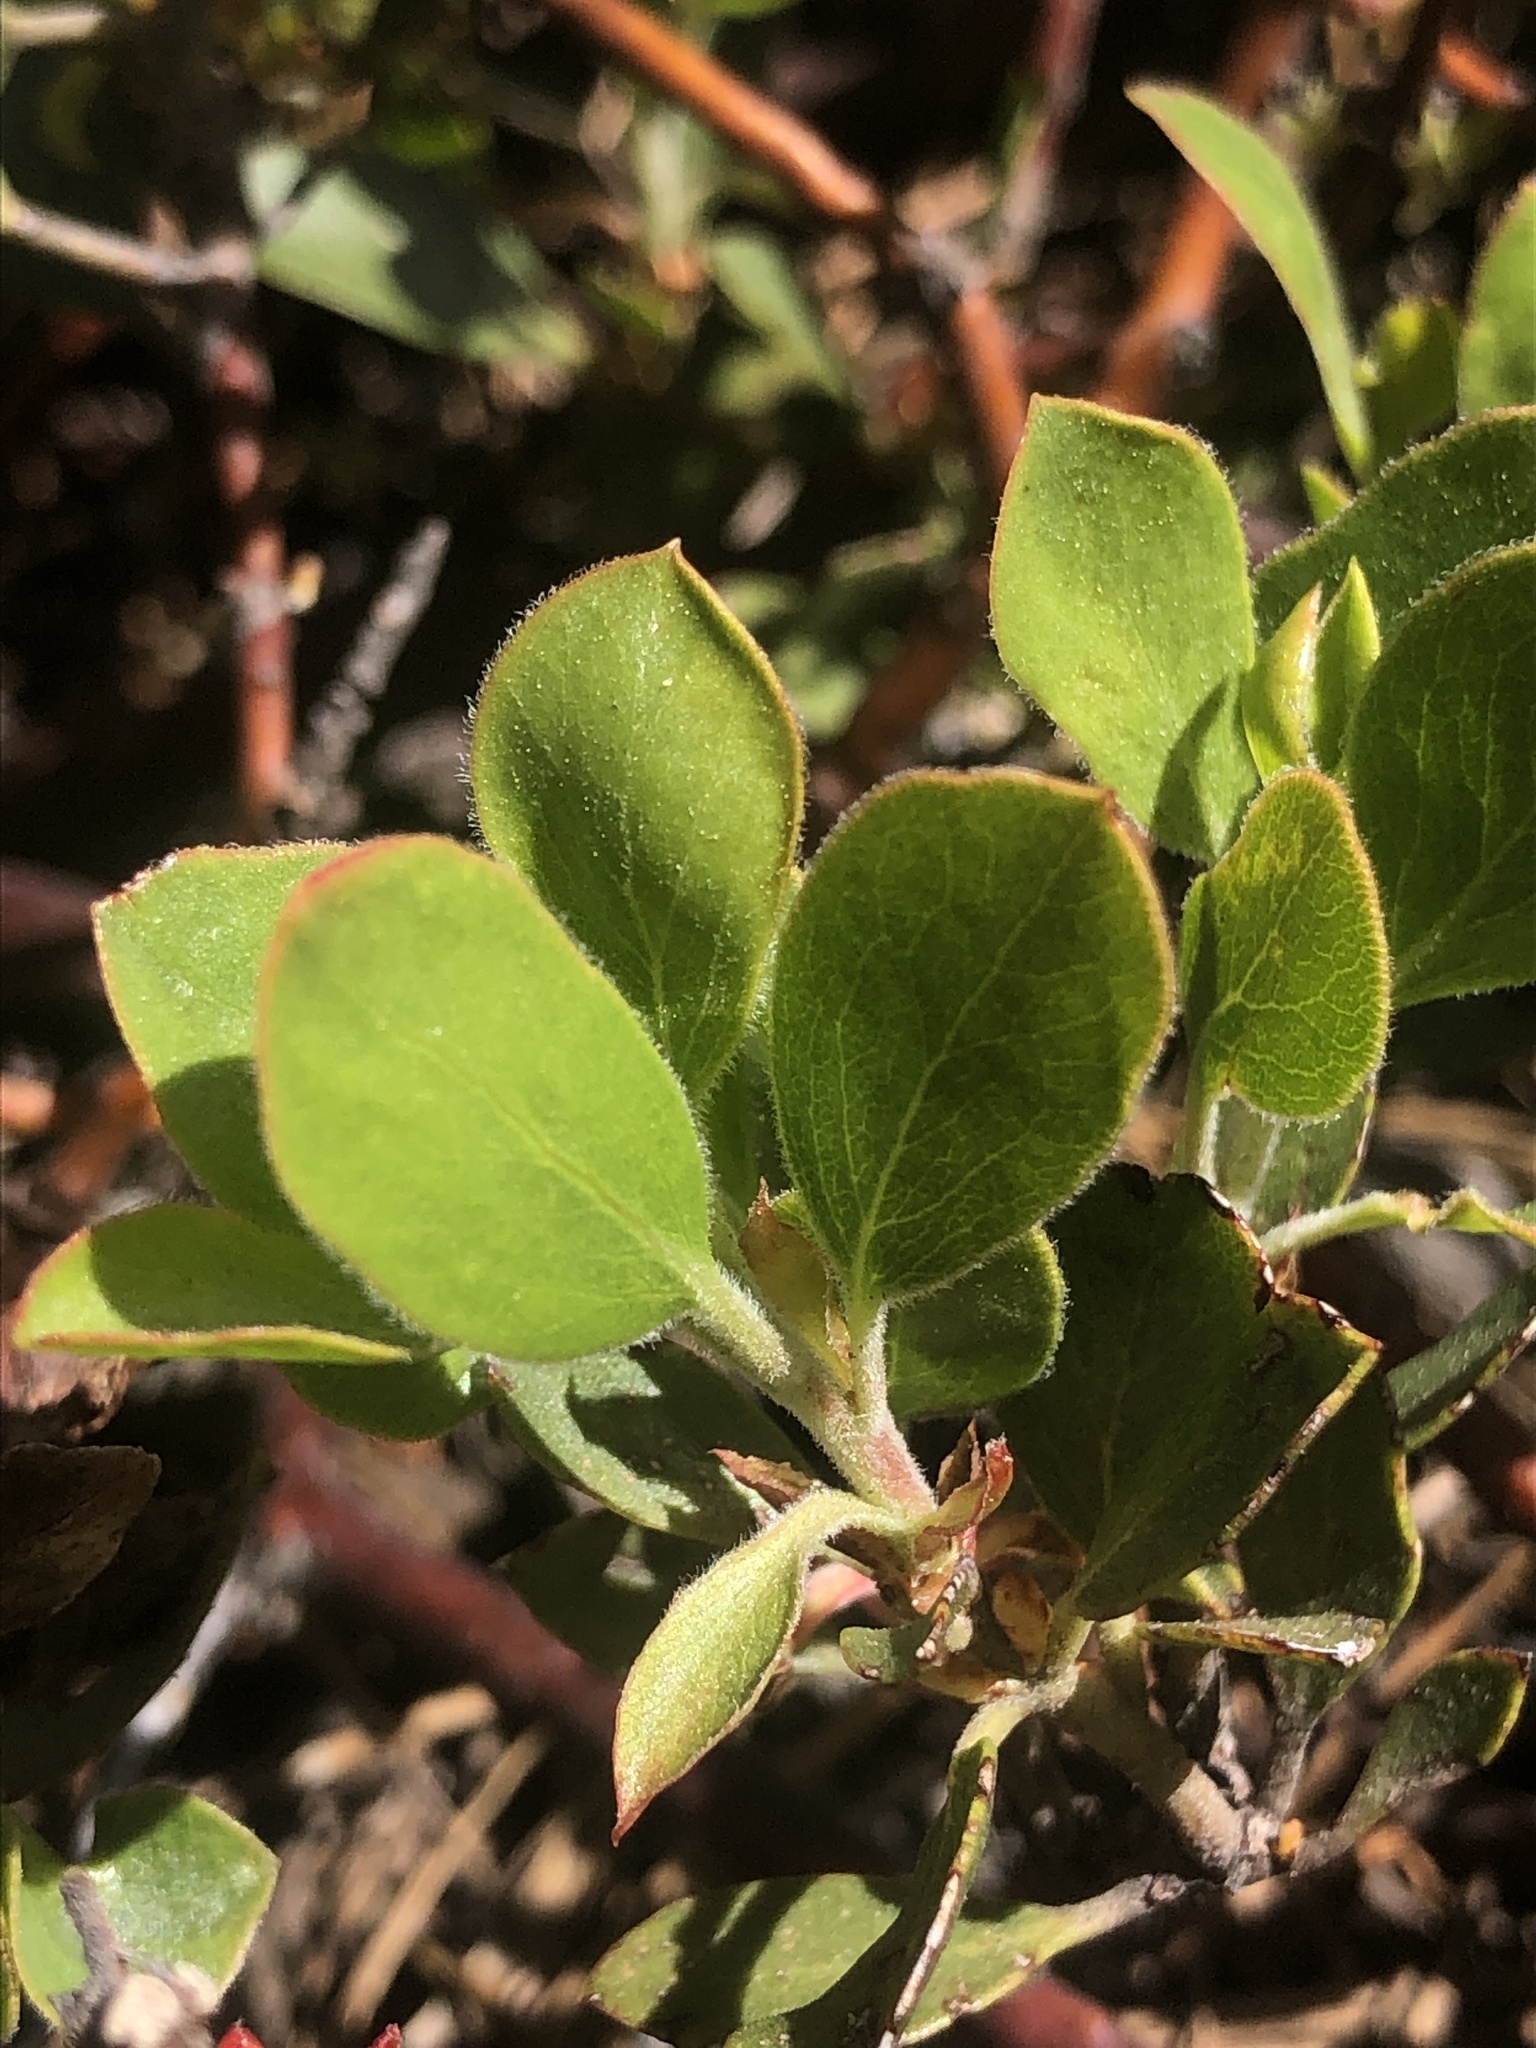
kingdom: Plantae
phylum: Tracheophyta
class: Magnoliopsida
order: Ericales
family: Ericaceae
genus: Arctostaphylos
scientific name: Arctostaphylos nevadensis
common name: Pinemat manzanita
